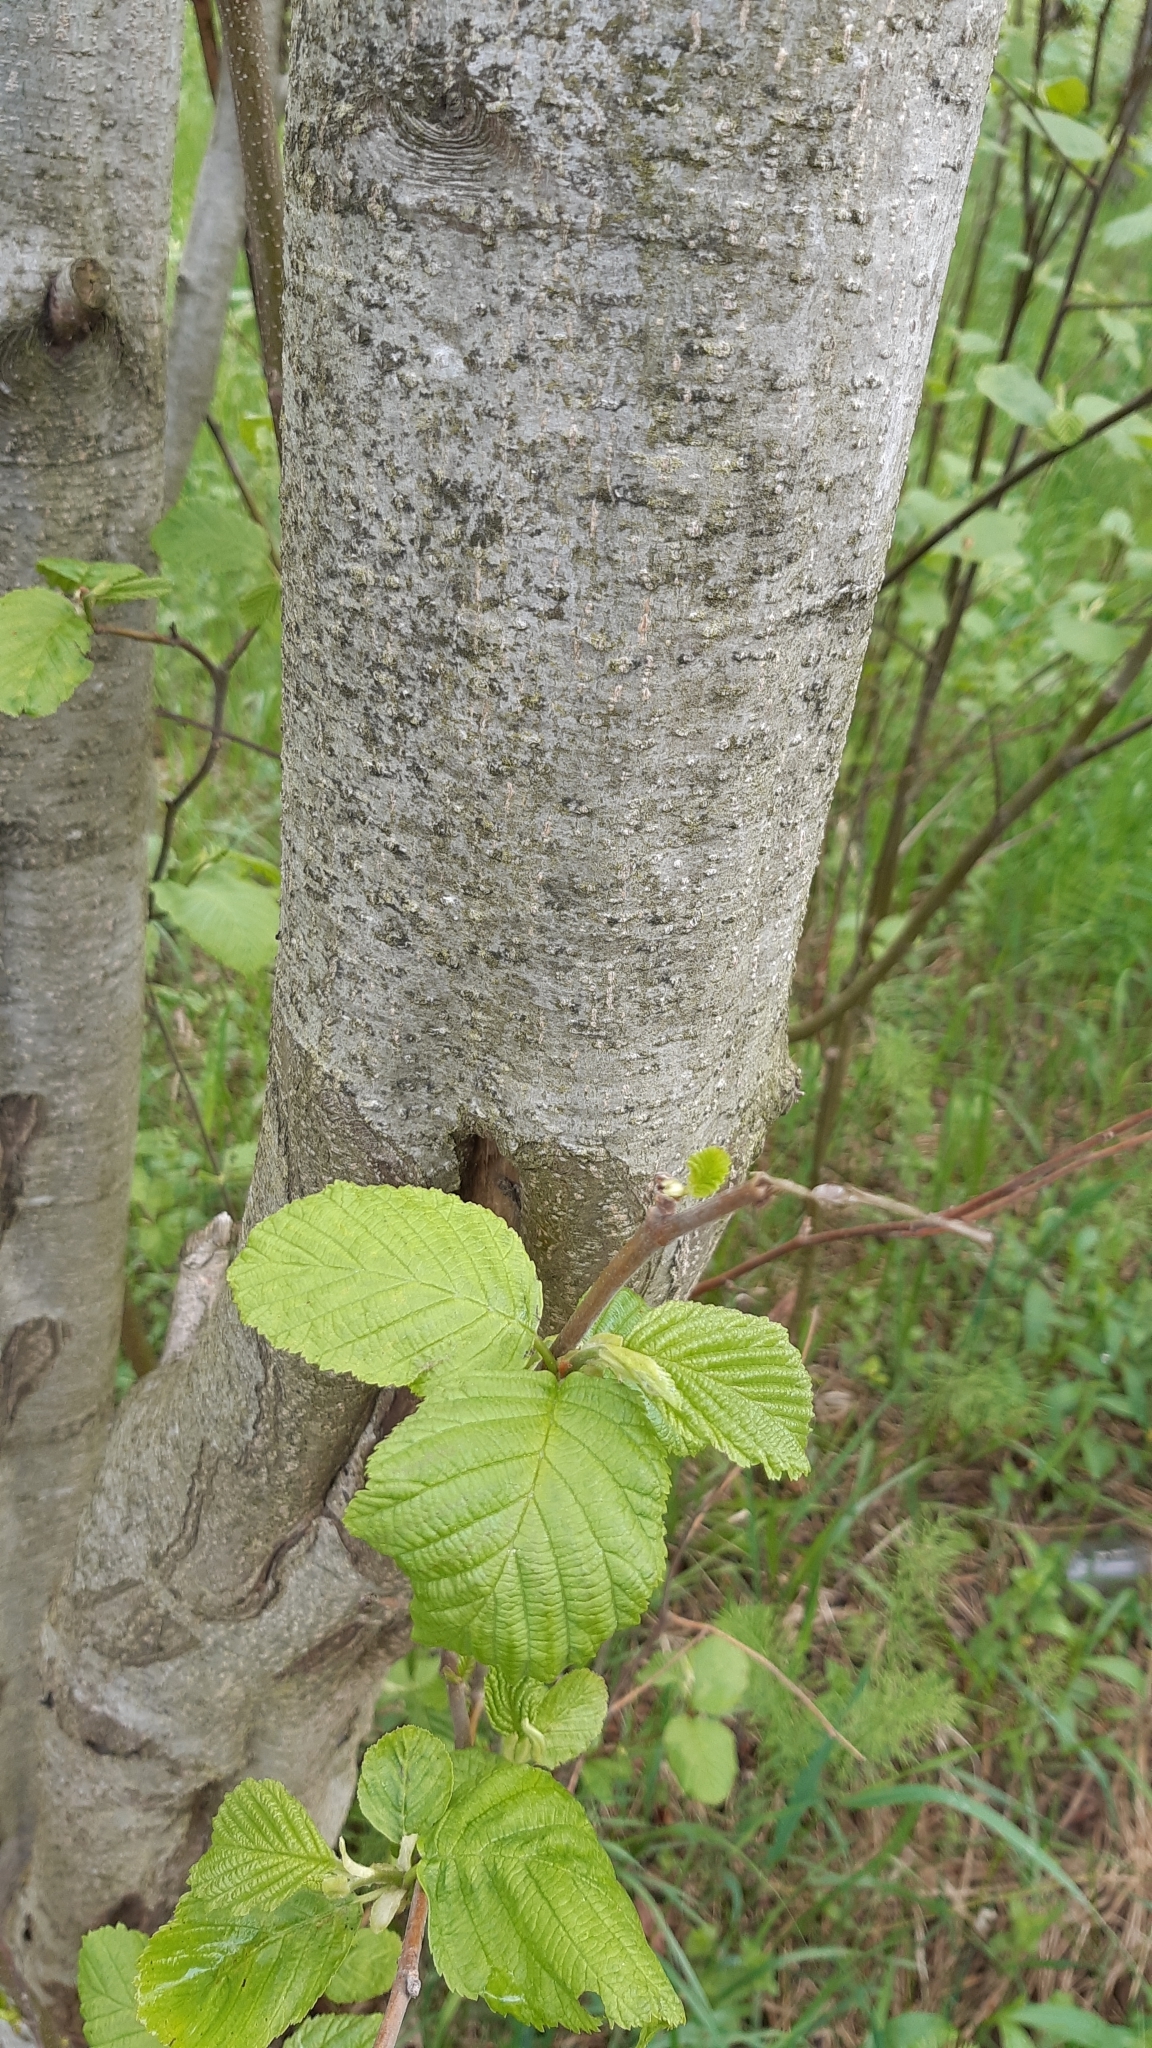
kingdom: Plantae
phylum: Tracheophyta
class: Magnoliopsida
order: Fagales
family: Betulaceae
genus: Alnus
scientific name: Alnus incana
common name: Grey alder
